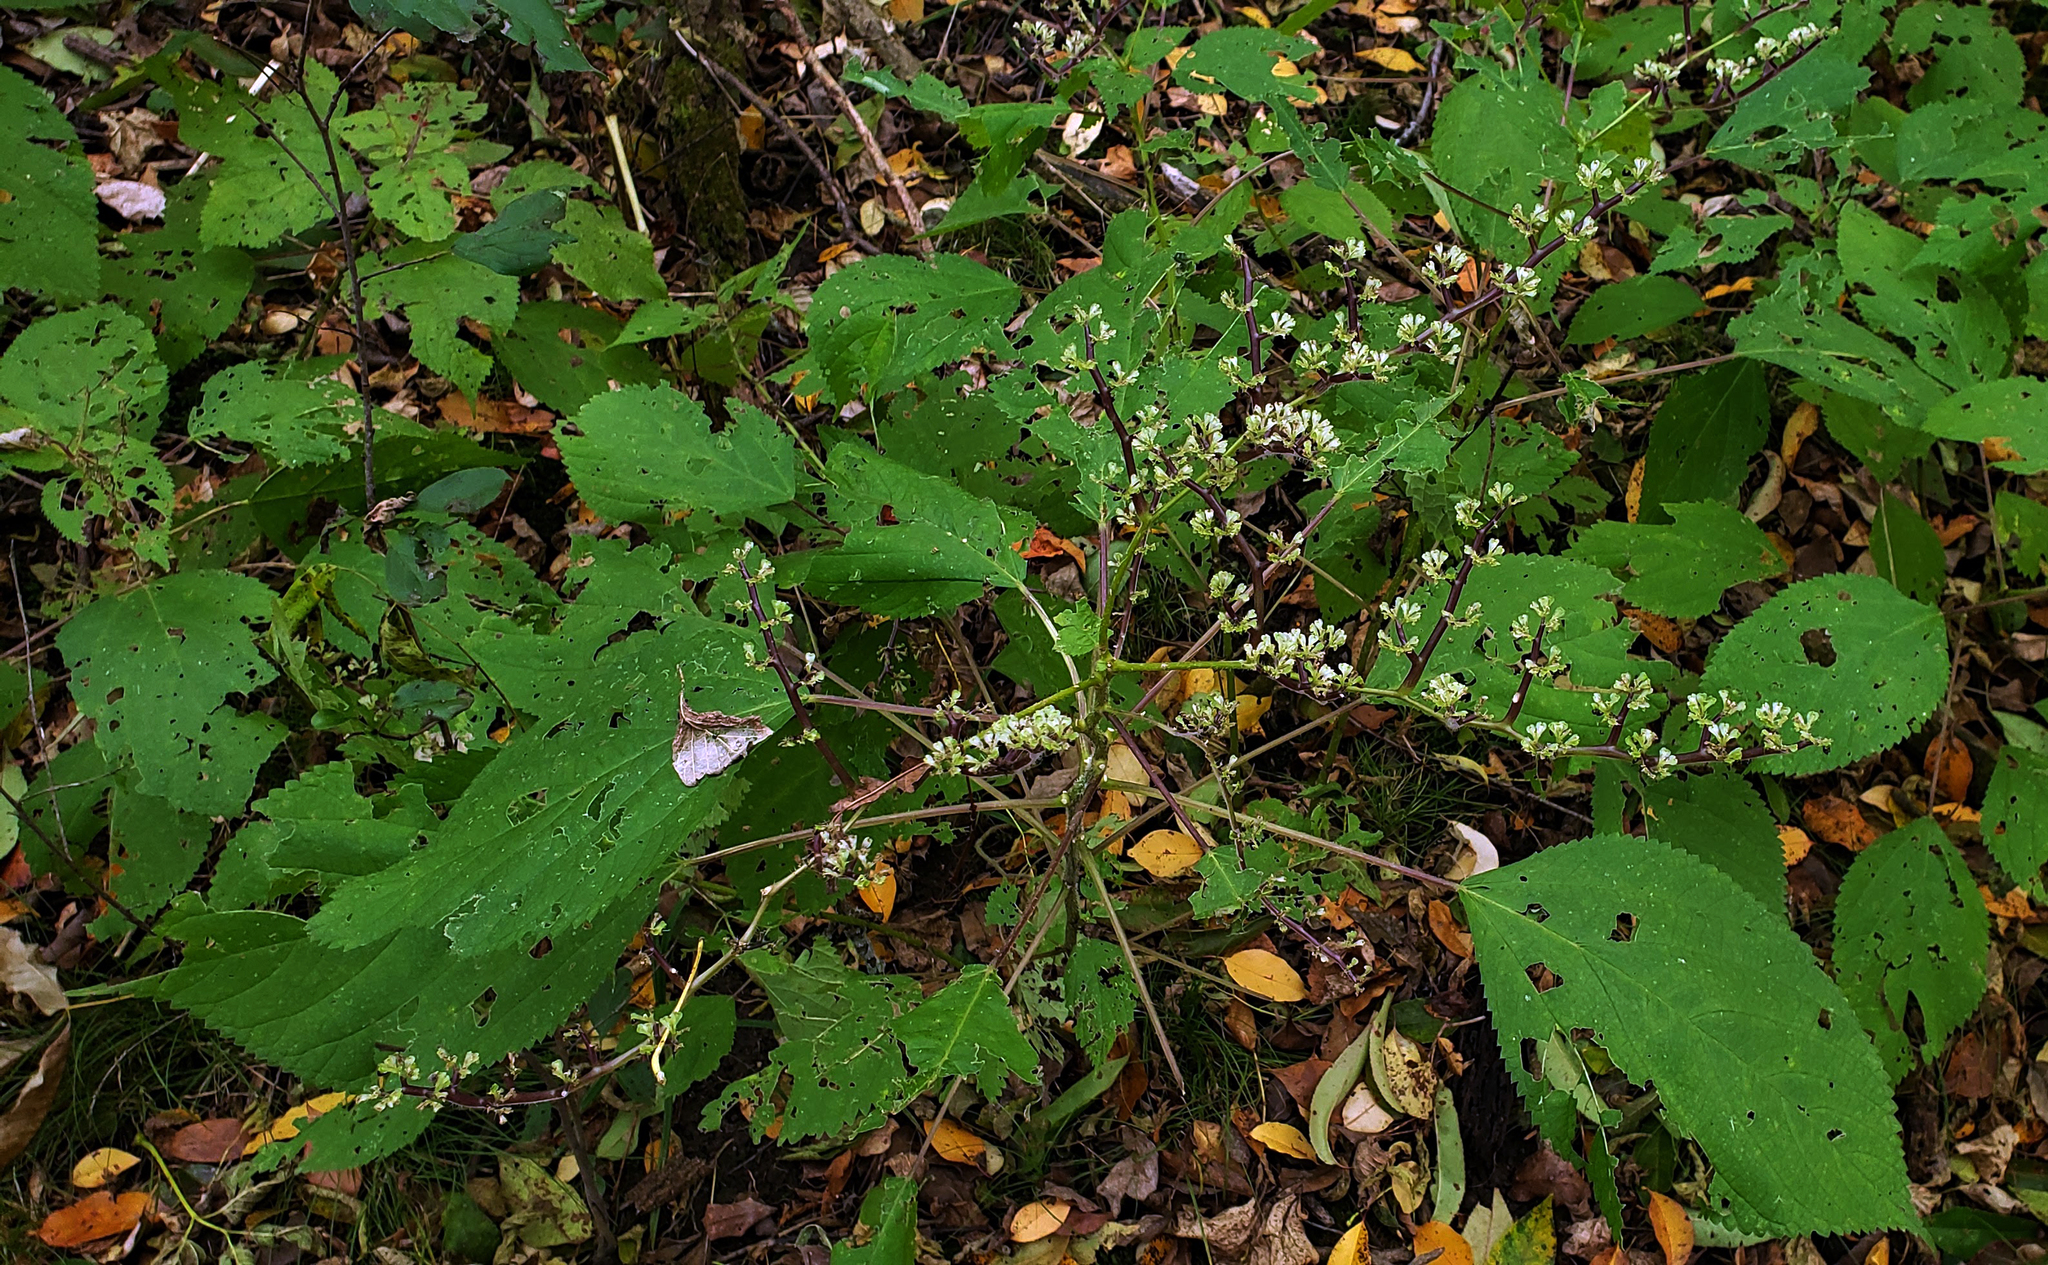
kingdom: Plantae
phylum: Tracheophyta
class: Magnoliopsida
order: Rosales
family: Urticaceae
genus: Laportea
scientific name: Laportea canadensis
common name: Canada nettle
